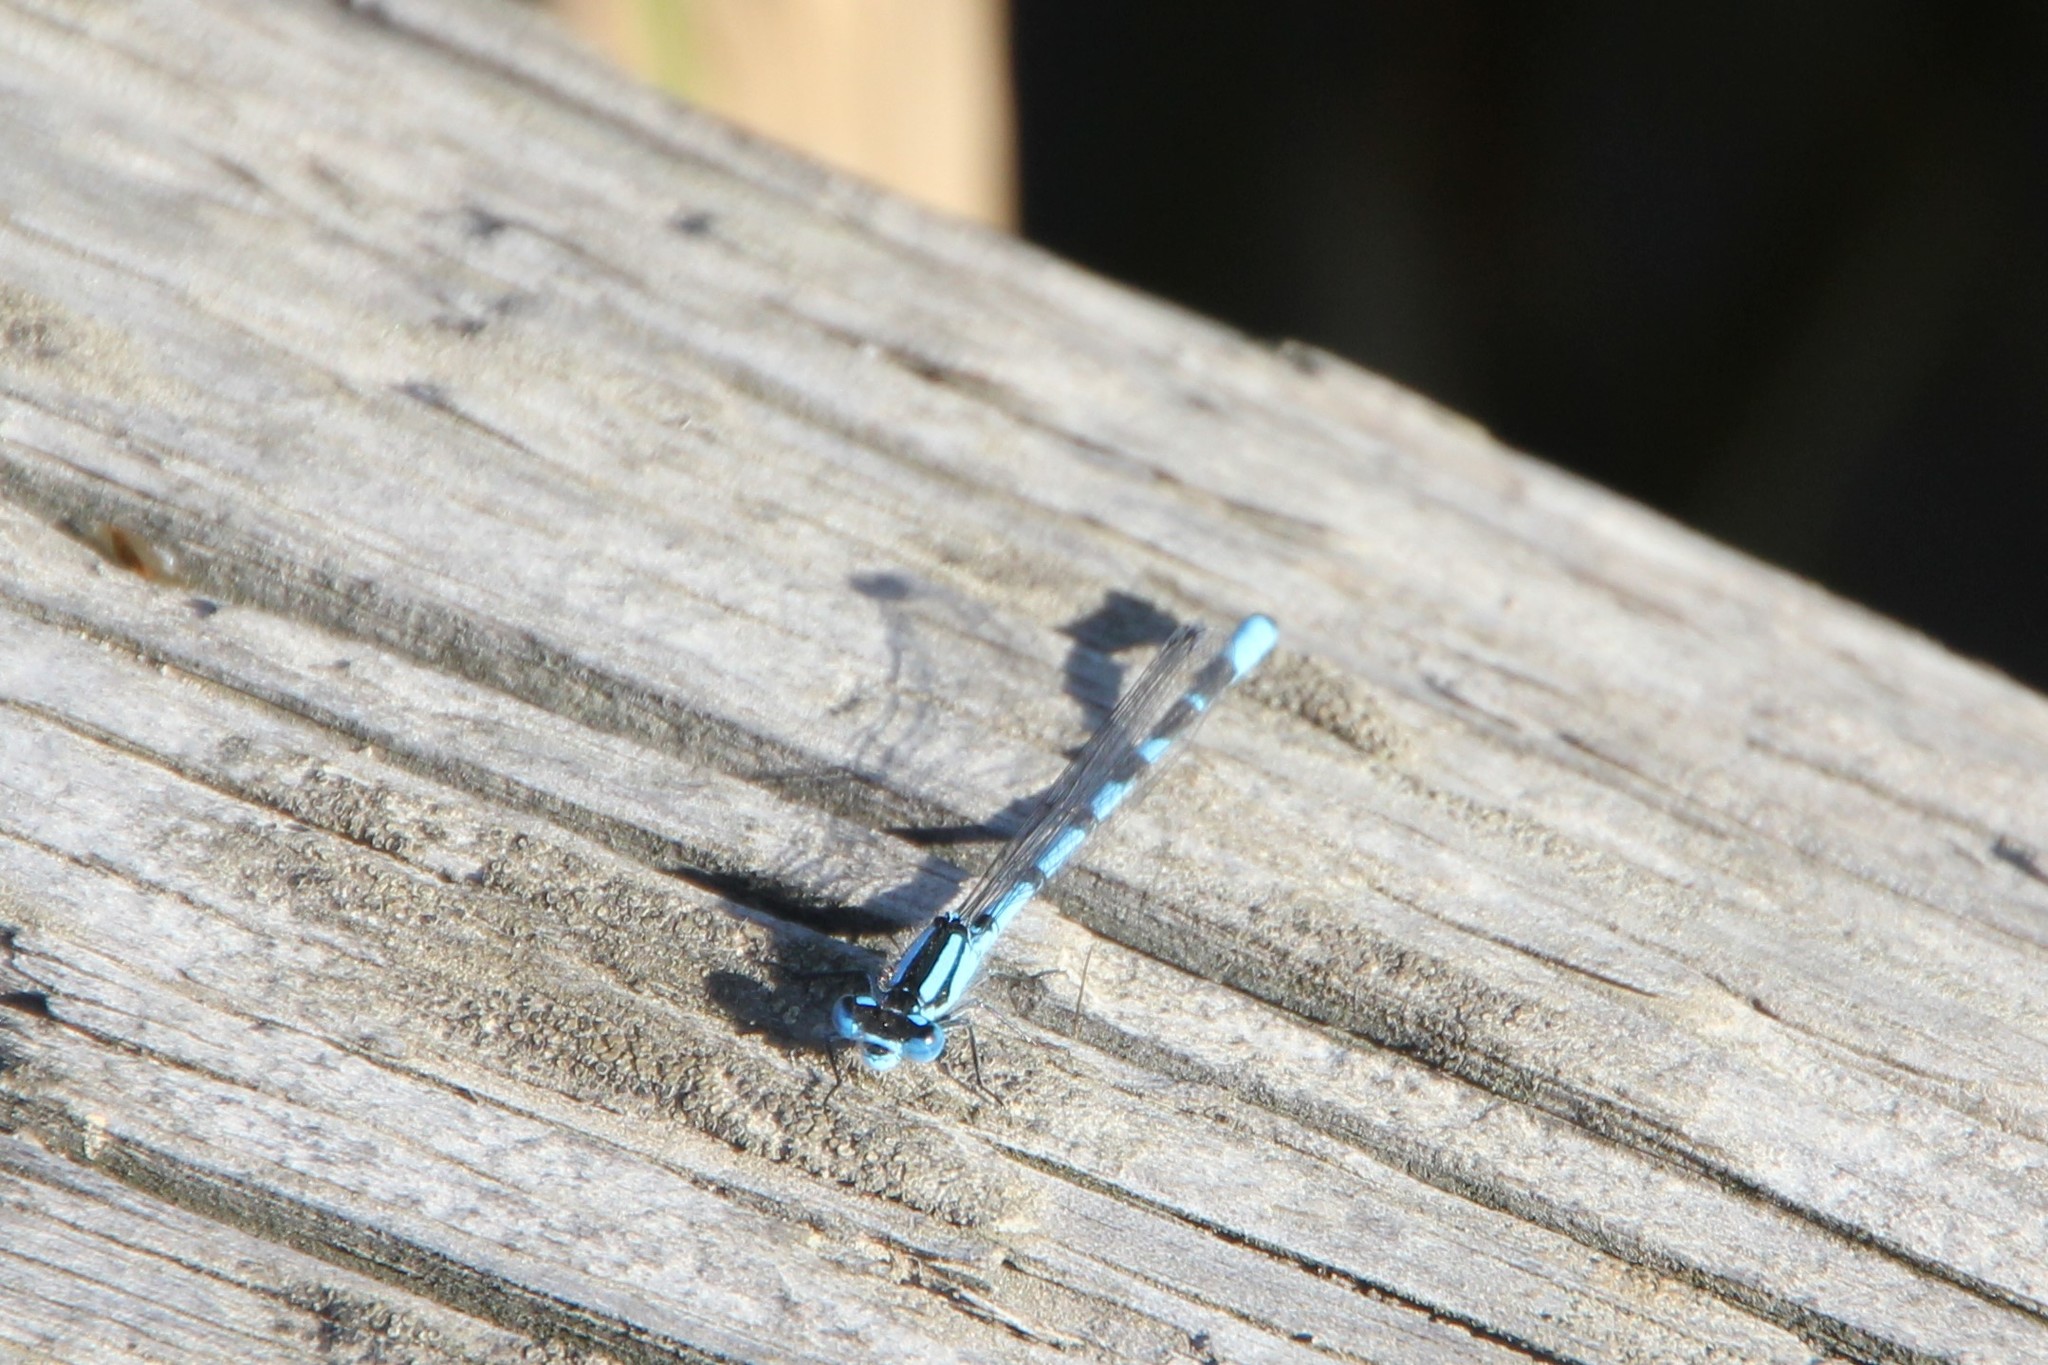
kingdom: Animalia
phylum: Arthropoda
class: Insecta
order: Odonata
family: Coenagrionidae
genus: Enallagma
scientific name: Enallagma cyathigerum
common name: Common blue damselfly
